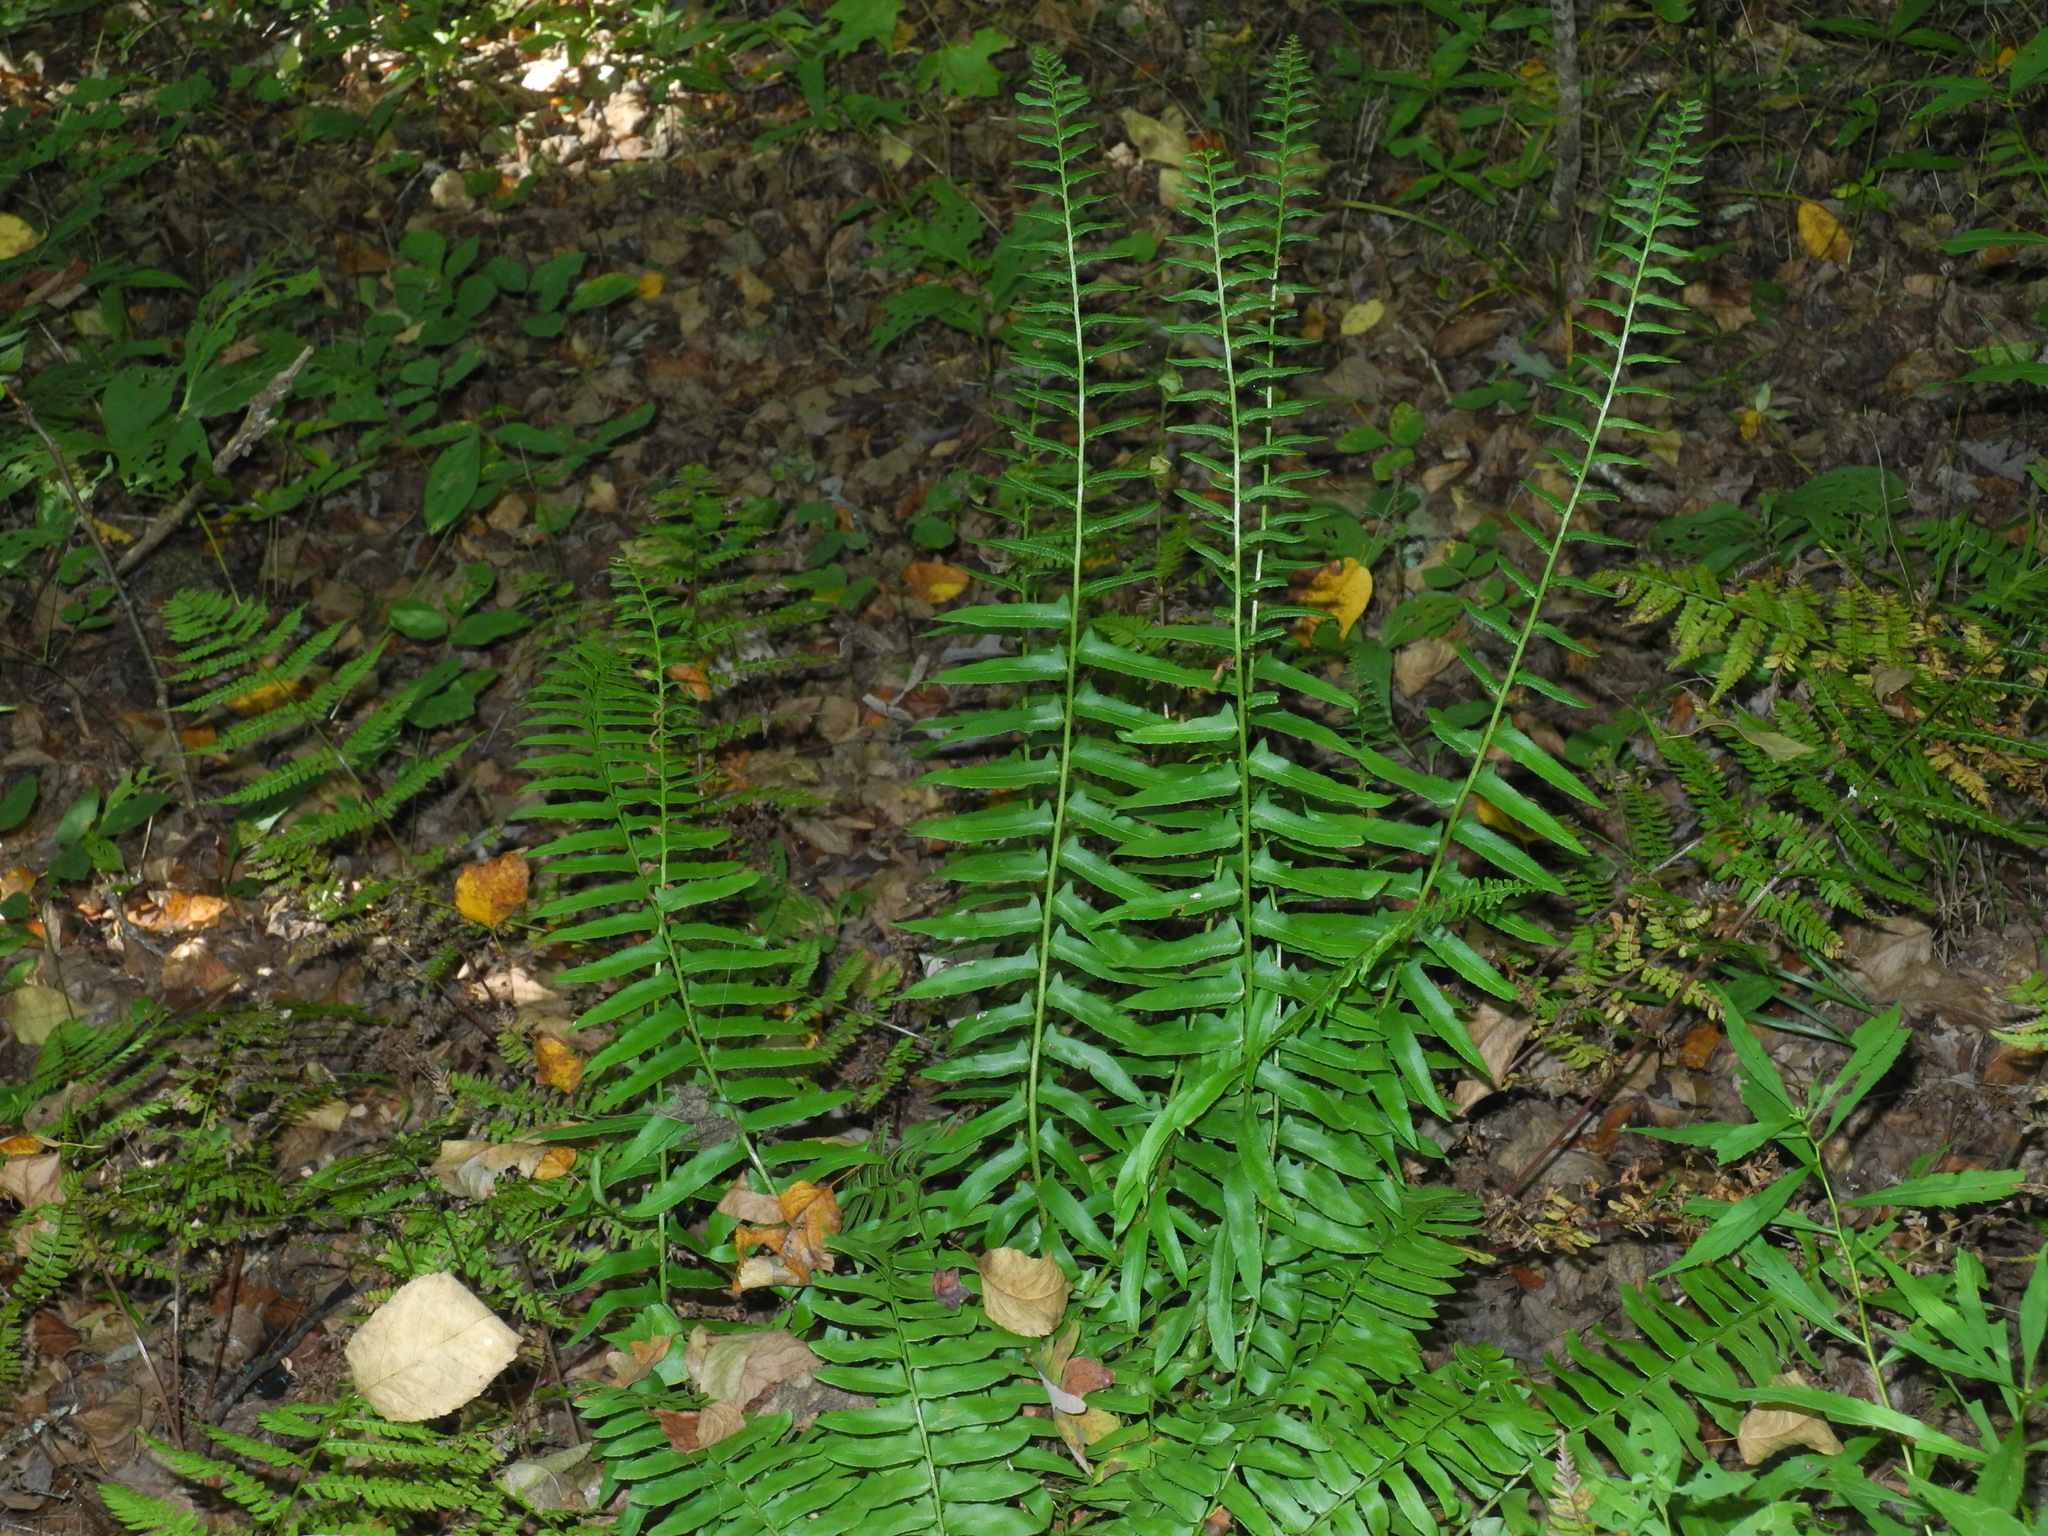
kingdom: Plantae
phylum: Tracheophyta
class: Polypodiopsida
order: Polypodiales
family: Dryopteridaceae
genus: Polystichum
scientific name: Polystichum acrostichoides
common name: Christmas fern
